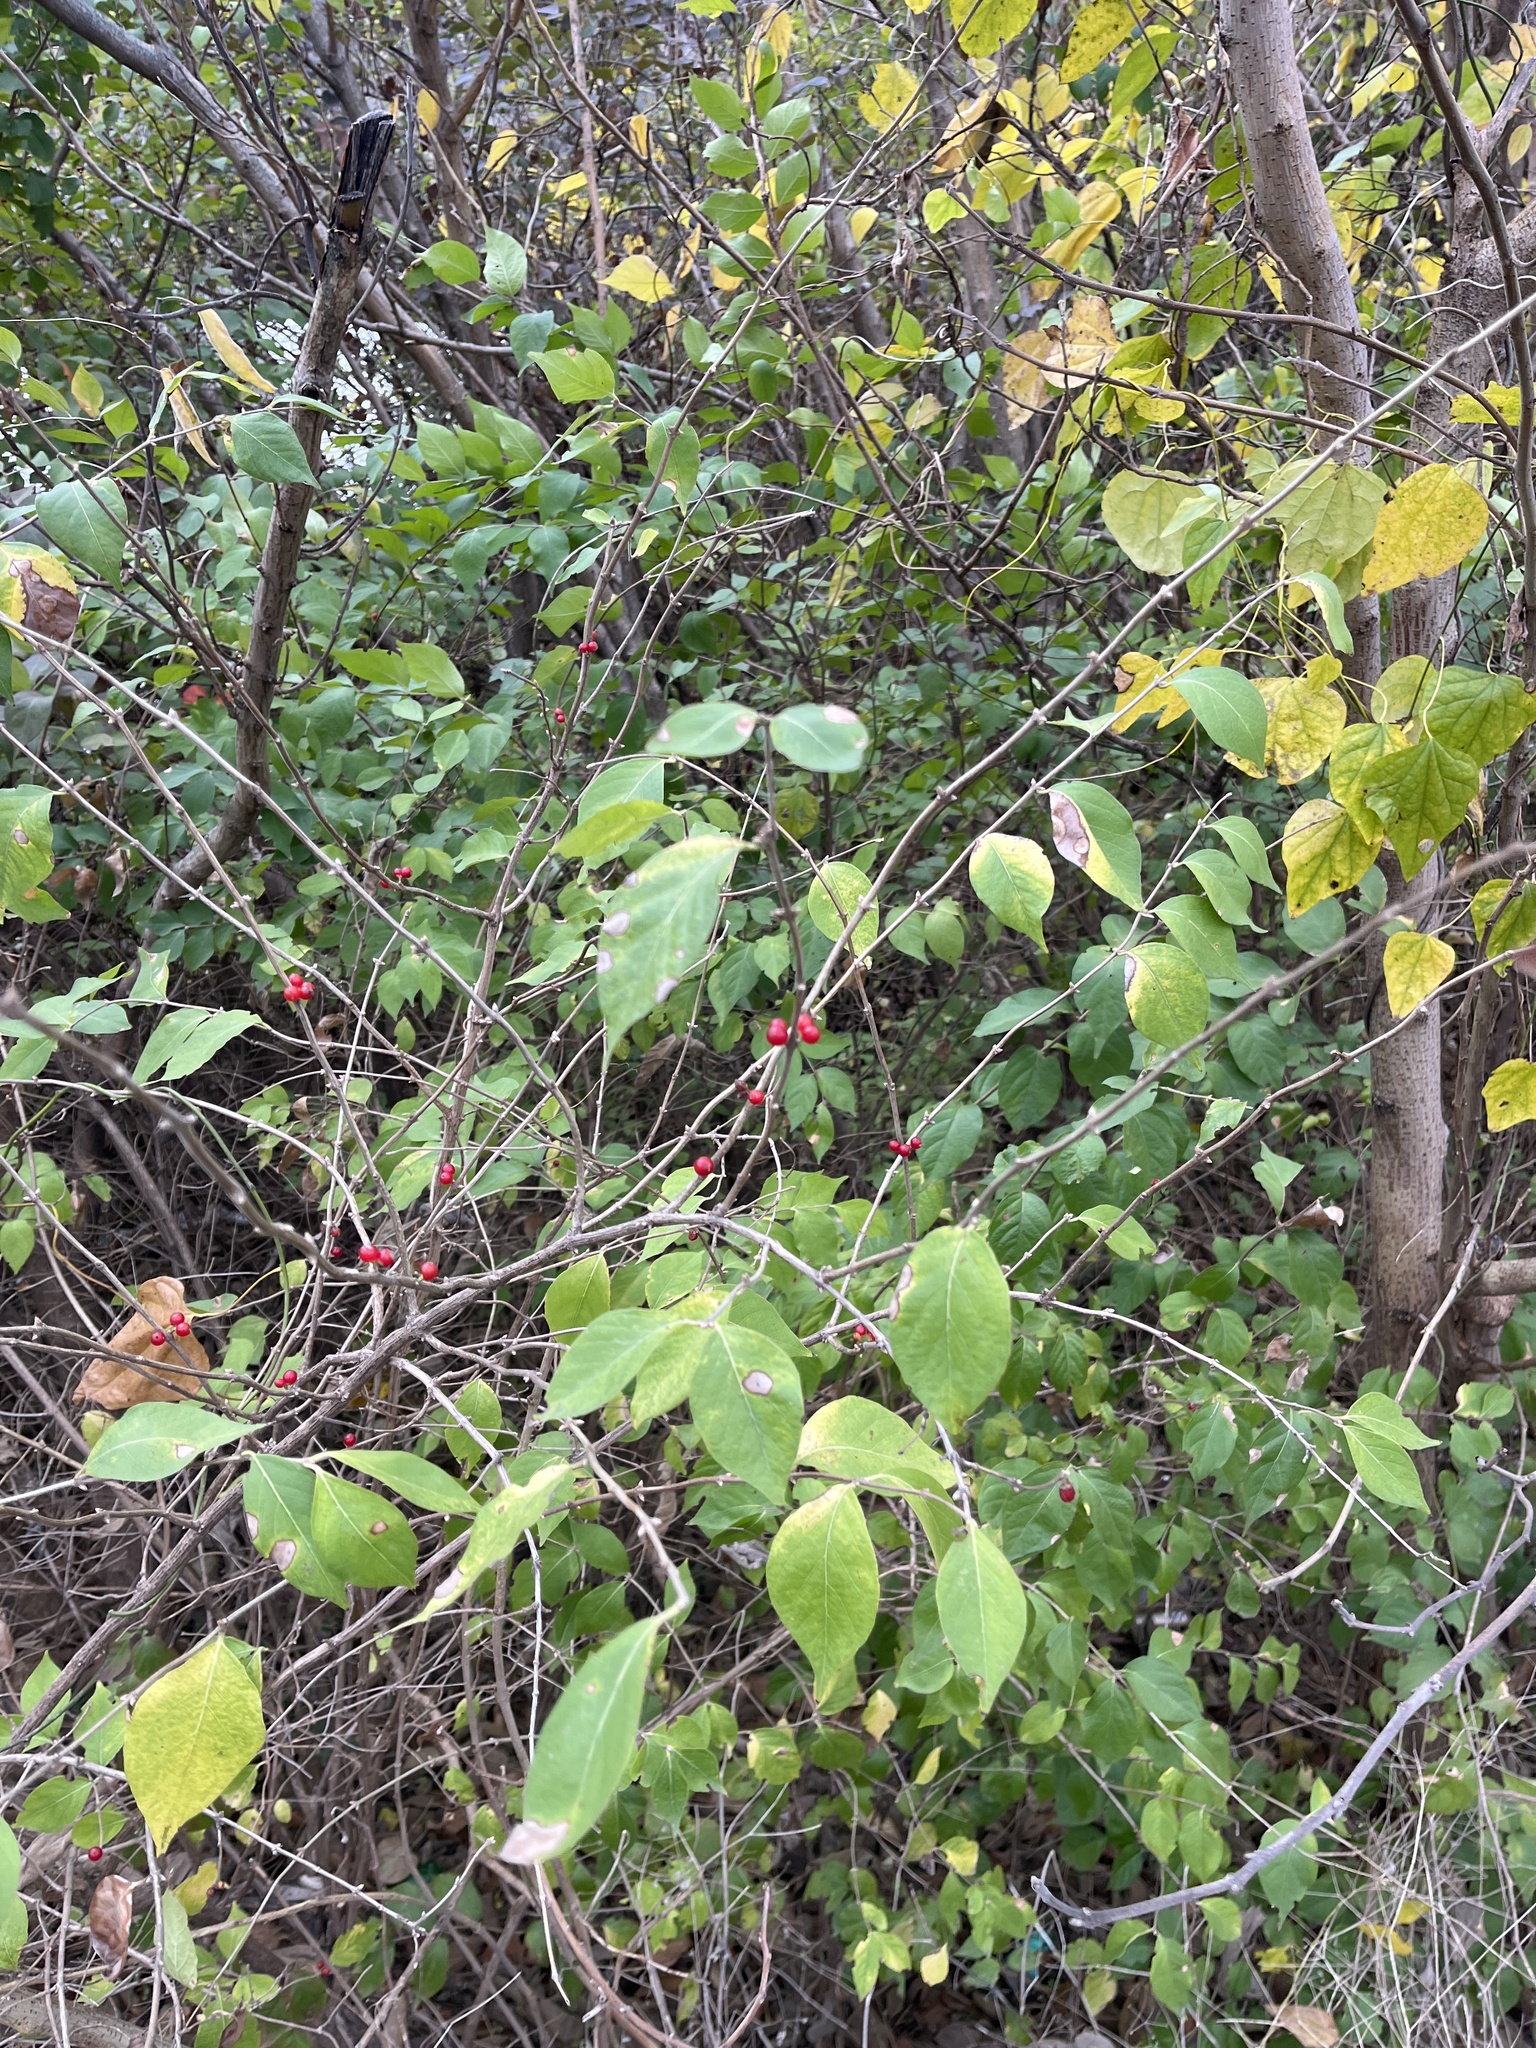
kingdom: Plantae
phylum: Tracheophyta
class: Magnoliopsida
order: Dipsacales
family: Caprifoliaceae
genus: Lonicera
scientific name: Lonicera maackii
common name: Amur honeysuckle
